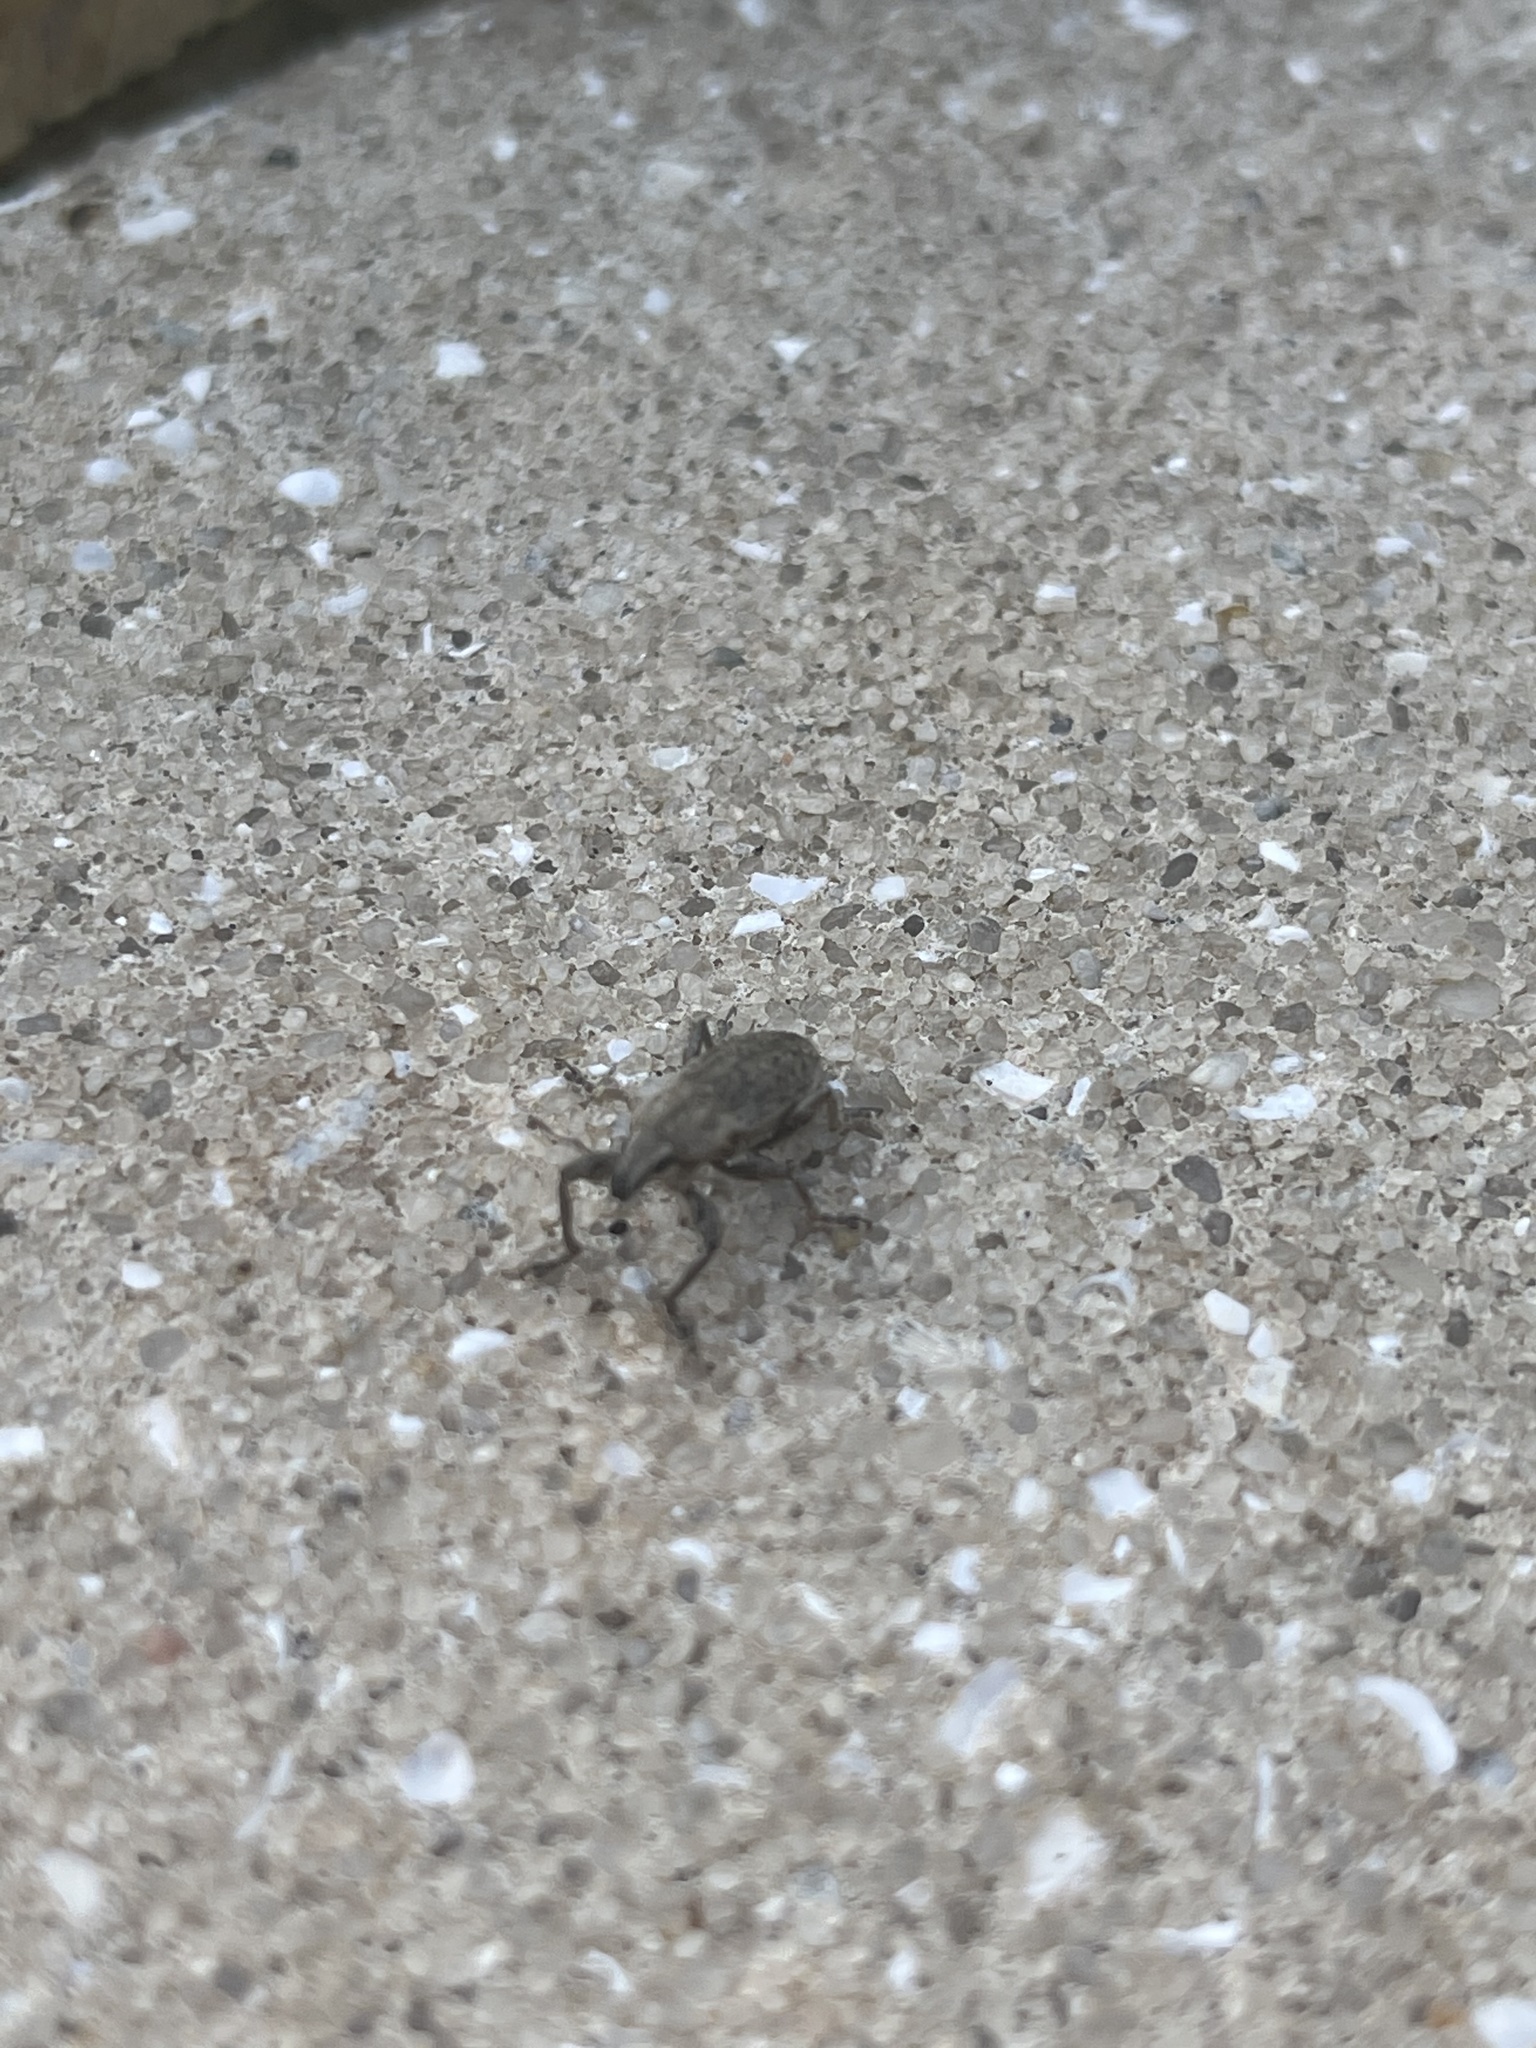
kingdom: Animalia
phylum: Arthropoda
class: Insecta
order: Coleoptera
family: Curculionidae
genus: Tanymecus
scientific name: Tanymecus lacaena
